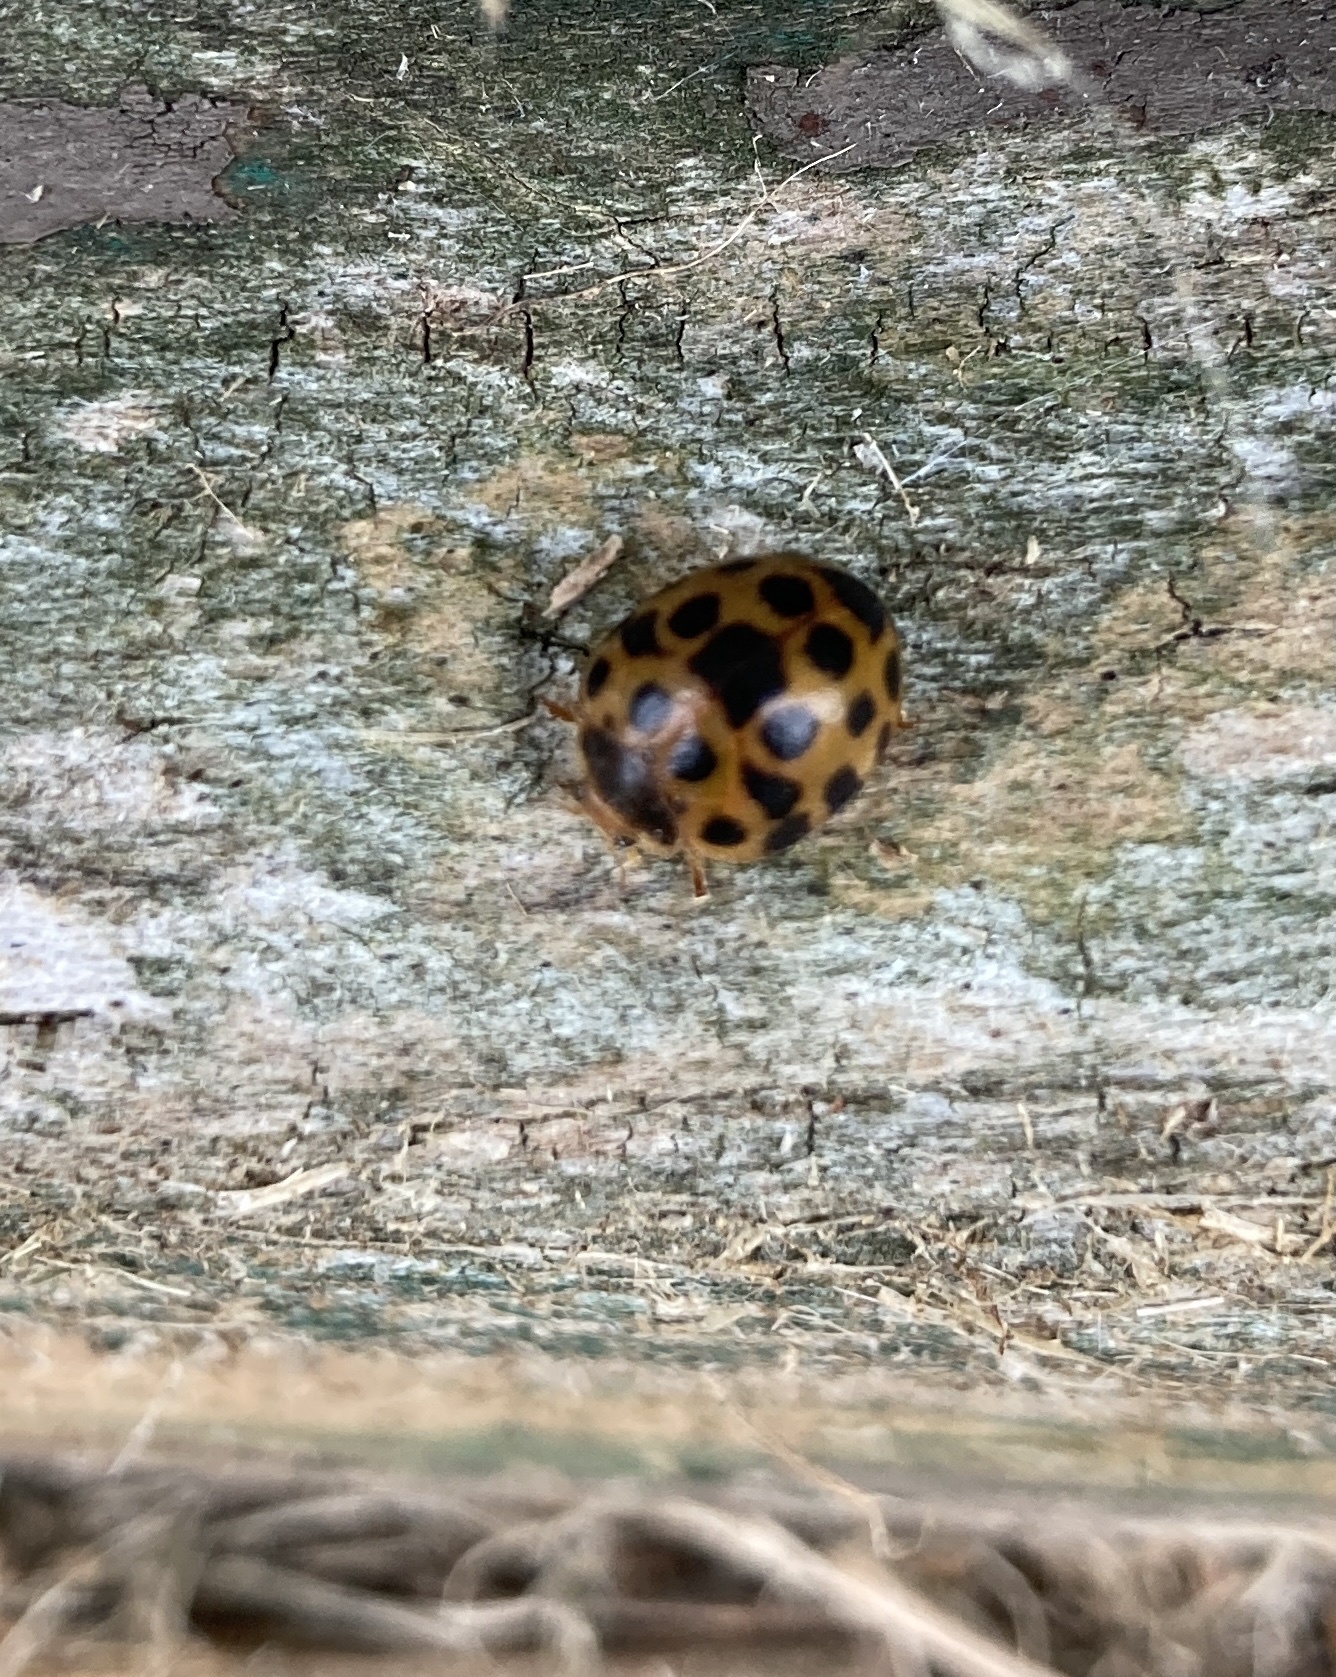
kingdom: Animalia
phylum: Arthropoda
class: Insecta
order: Coleoptera
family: Coccinellidae
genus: Henosepilachna
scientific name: Henosepilachna vigintioctopunctata
